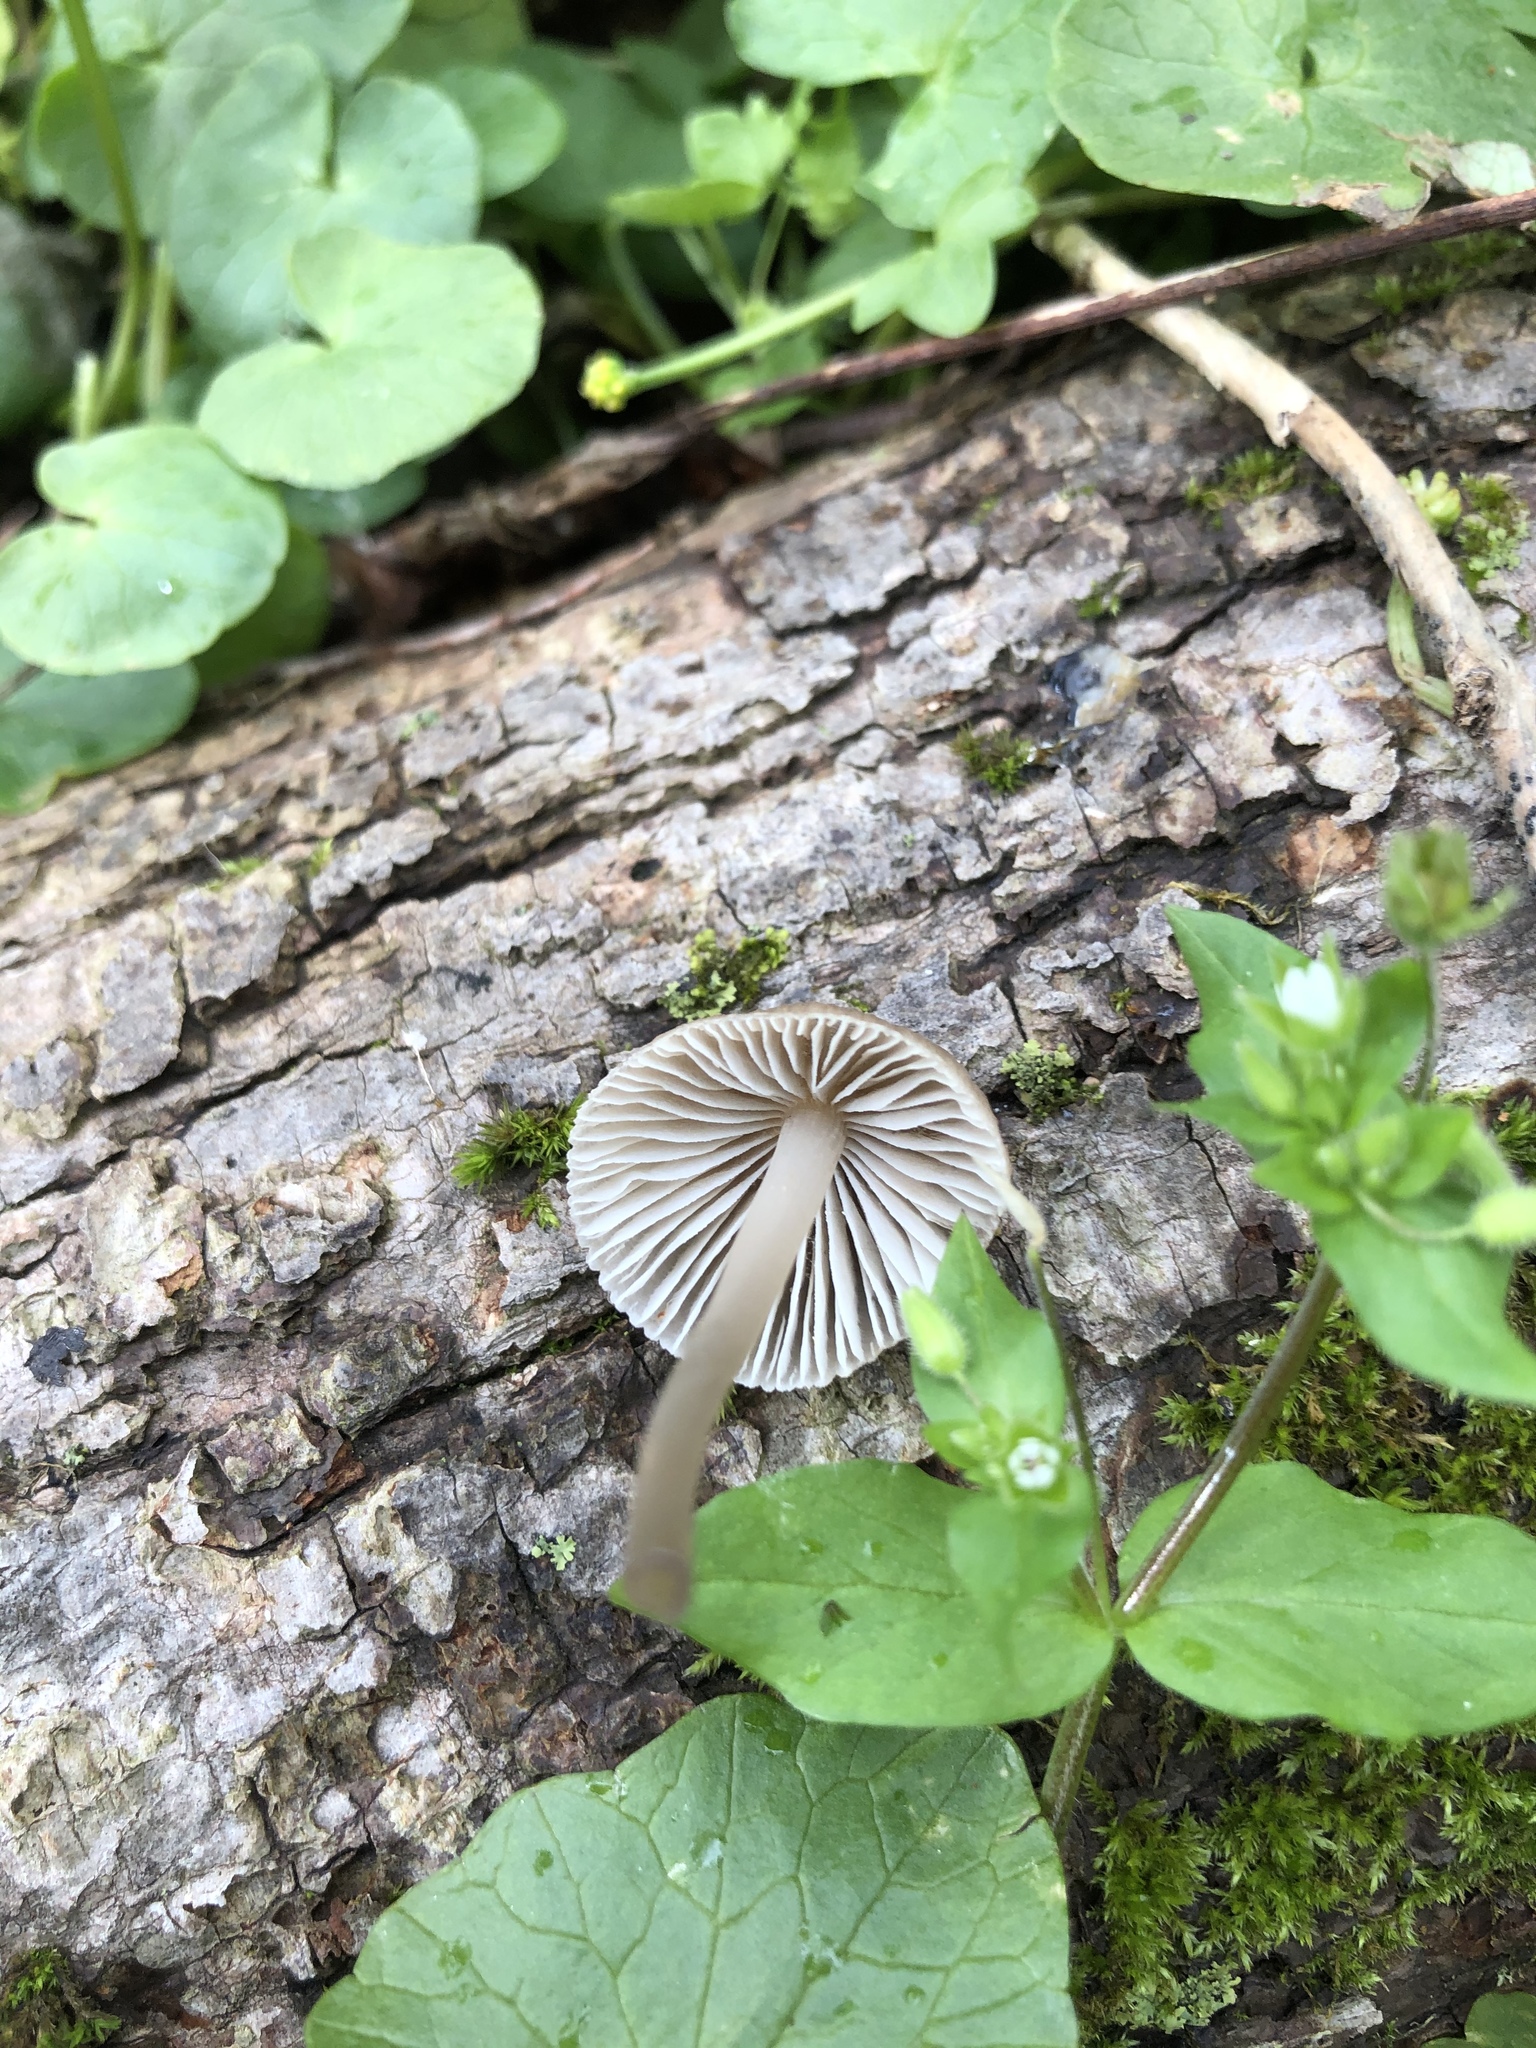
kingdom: Fungi
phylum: Basidiomycota
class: Agaricomycetes
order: Agaricales
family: Mycenaceae
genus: Mycena
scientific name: Mycena galericulata
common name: Bonnet mycena
